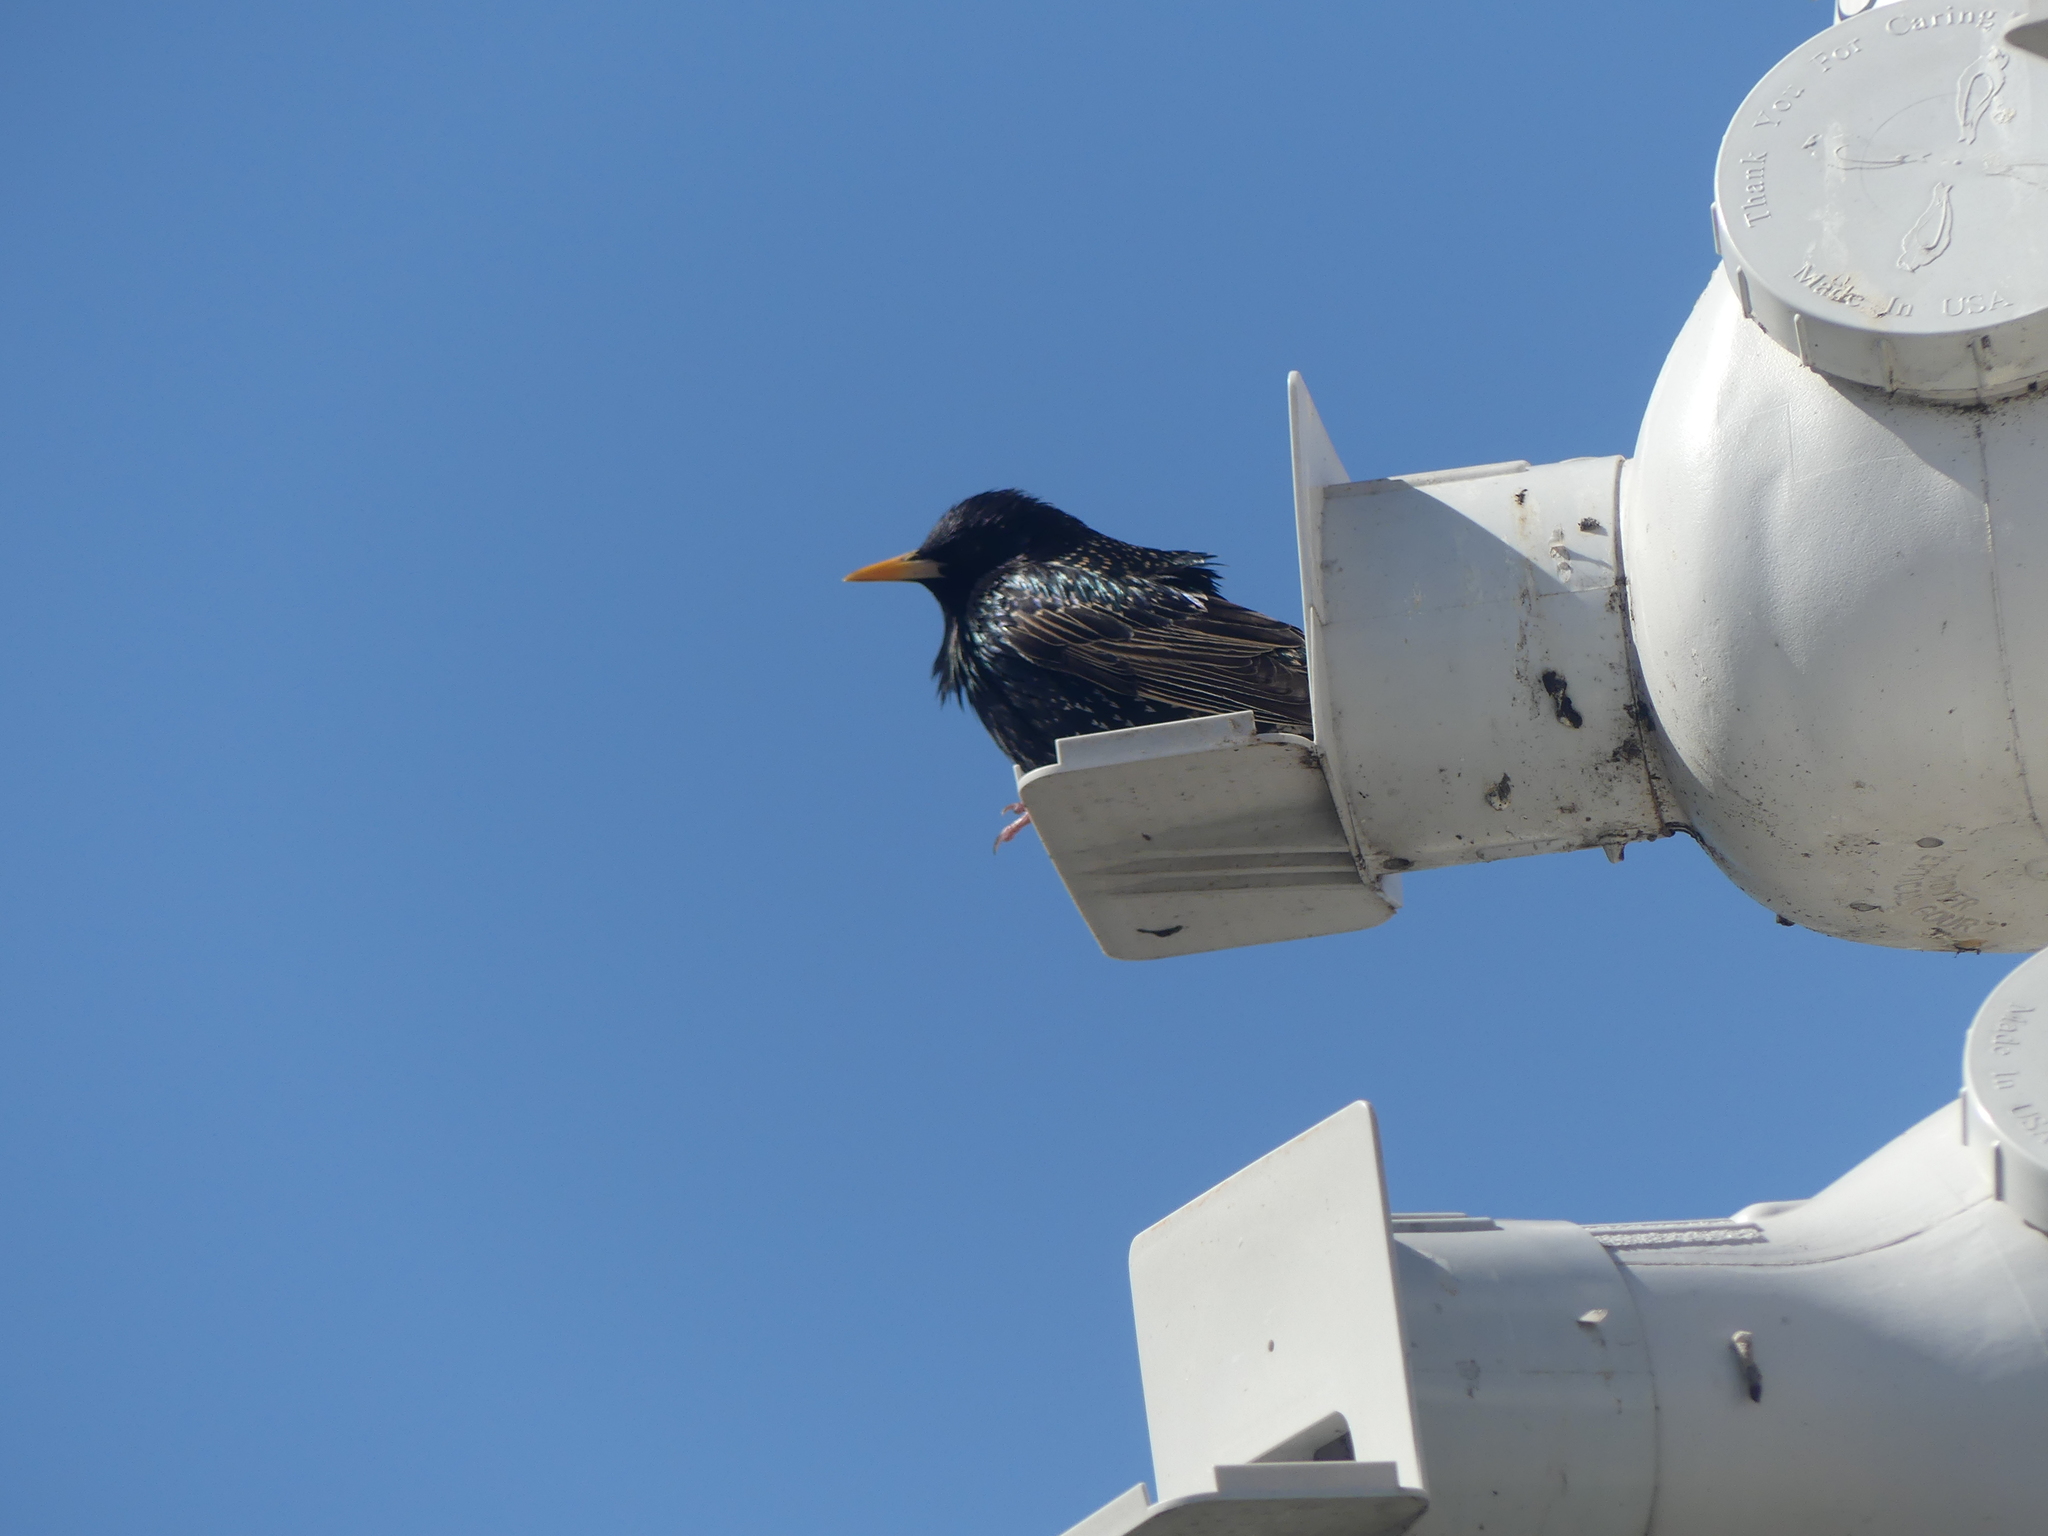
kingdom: Animalia
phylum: Chordata
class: Aves
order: Passeriformes
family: Sturnidae
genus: Sturnus
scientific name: Sturnus vulgaris
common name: Common starling
